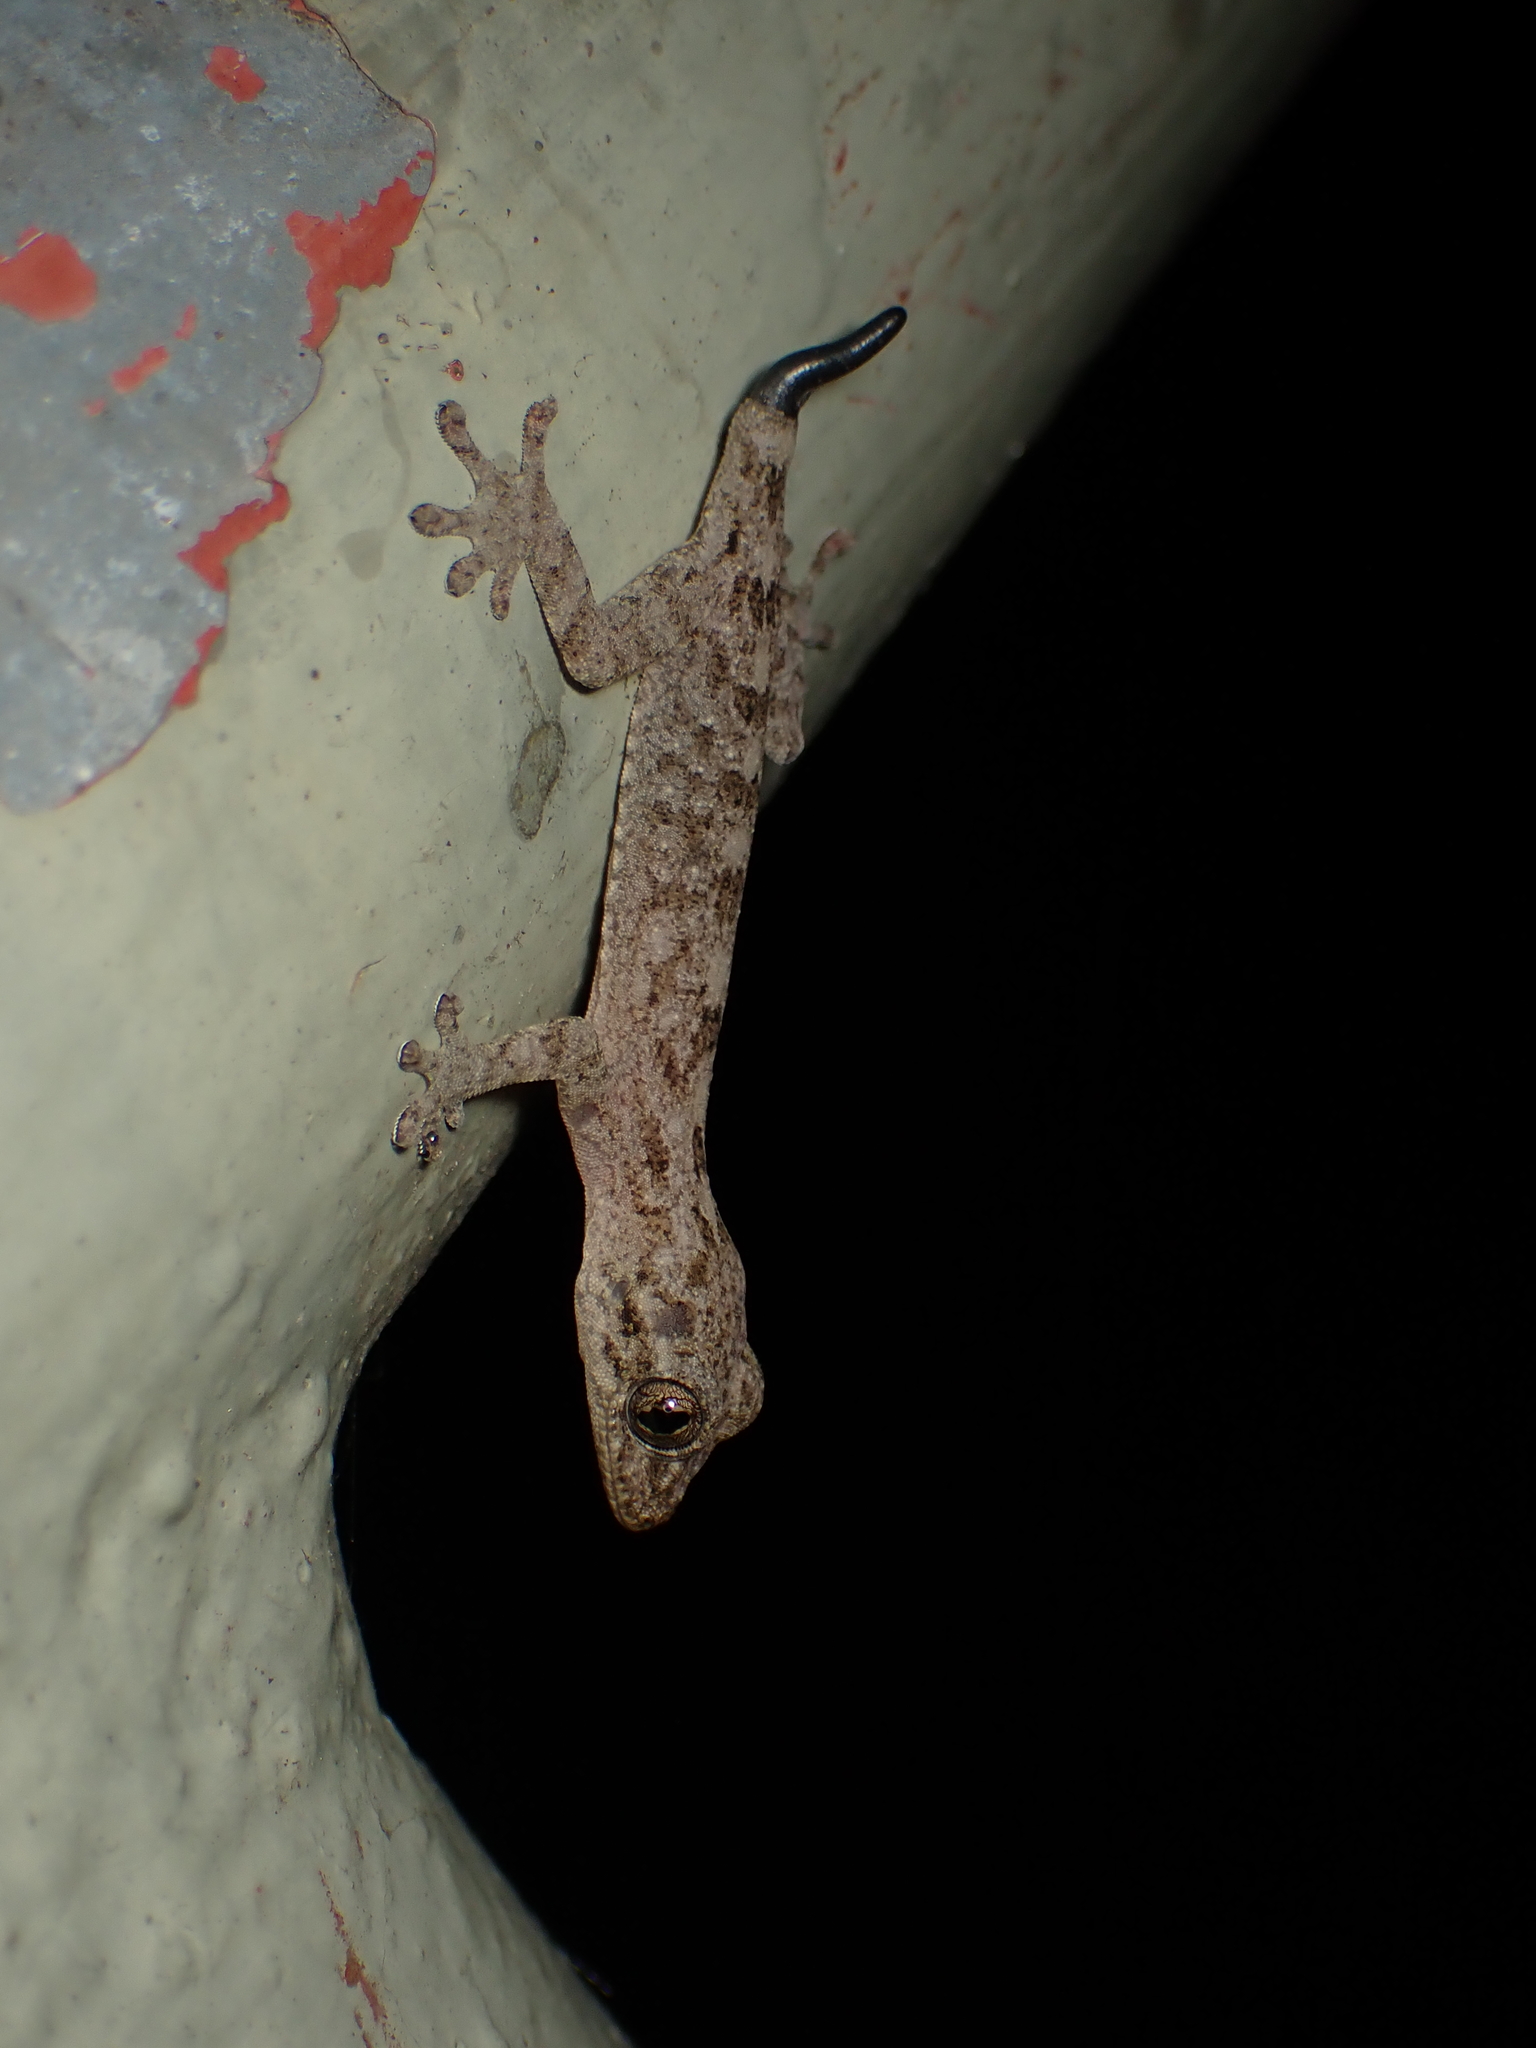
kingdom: Animalia
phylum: Chordata
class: Squamata
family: Gekkonidae
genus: Gekko
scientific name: Gekko chinensis
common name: Gray's chinese gecko
